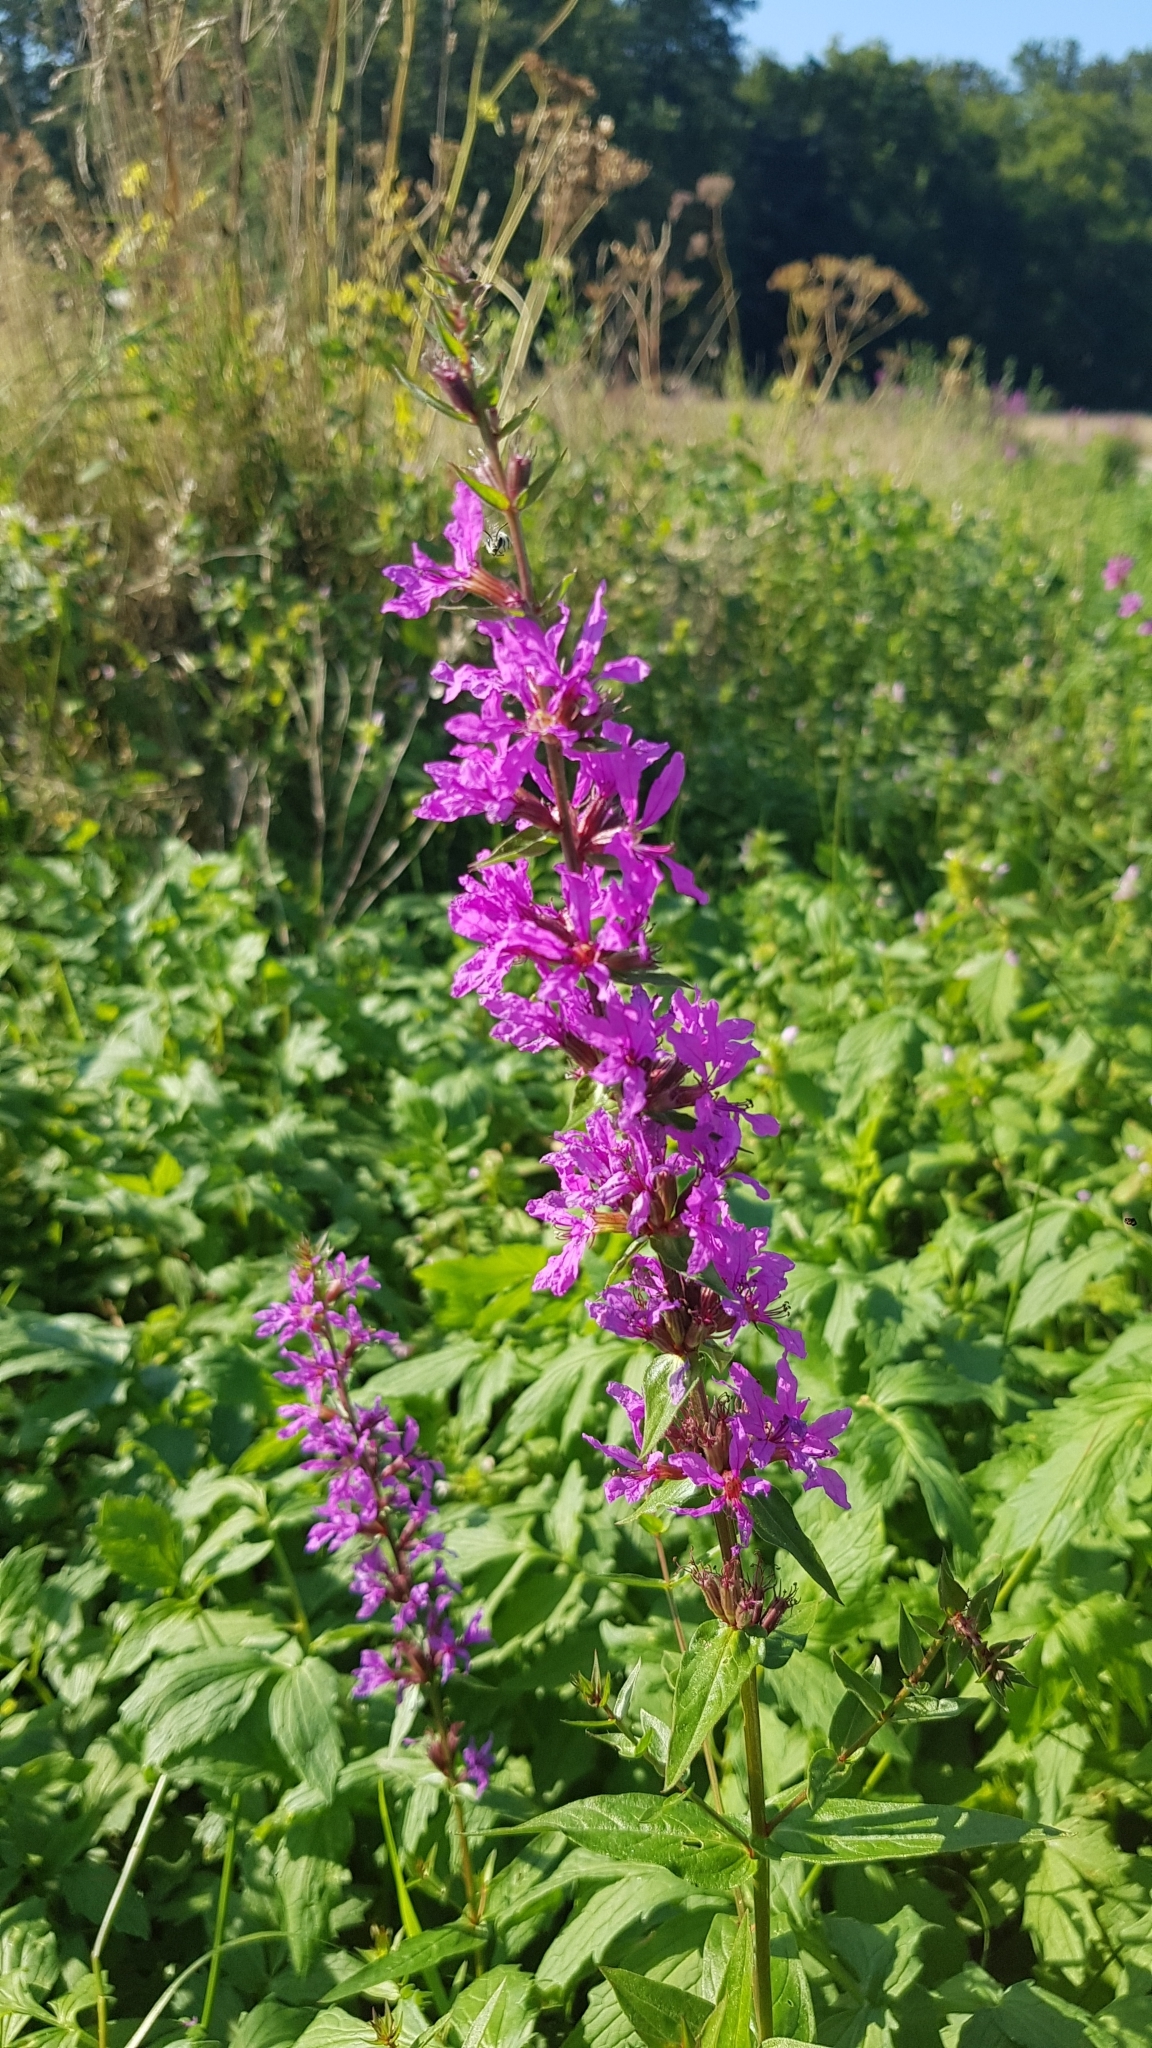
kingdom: Plantae
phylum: Tracheophyta
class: Magnoliopsida
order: Myrtales
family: Lythraceae
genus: Lythrum
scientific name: Lythrum salicaria
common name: Purple loosestrife
